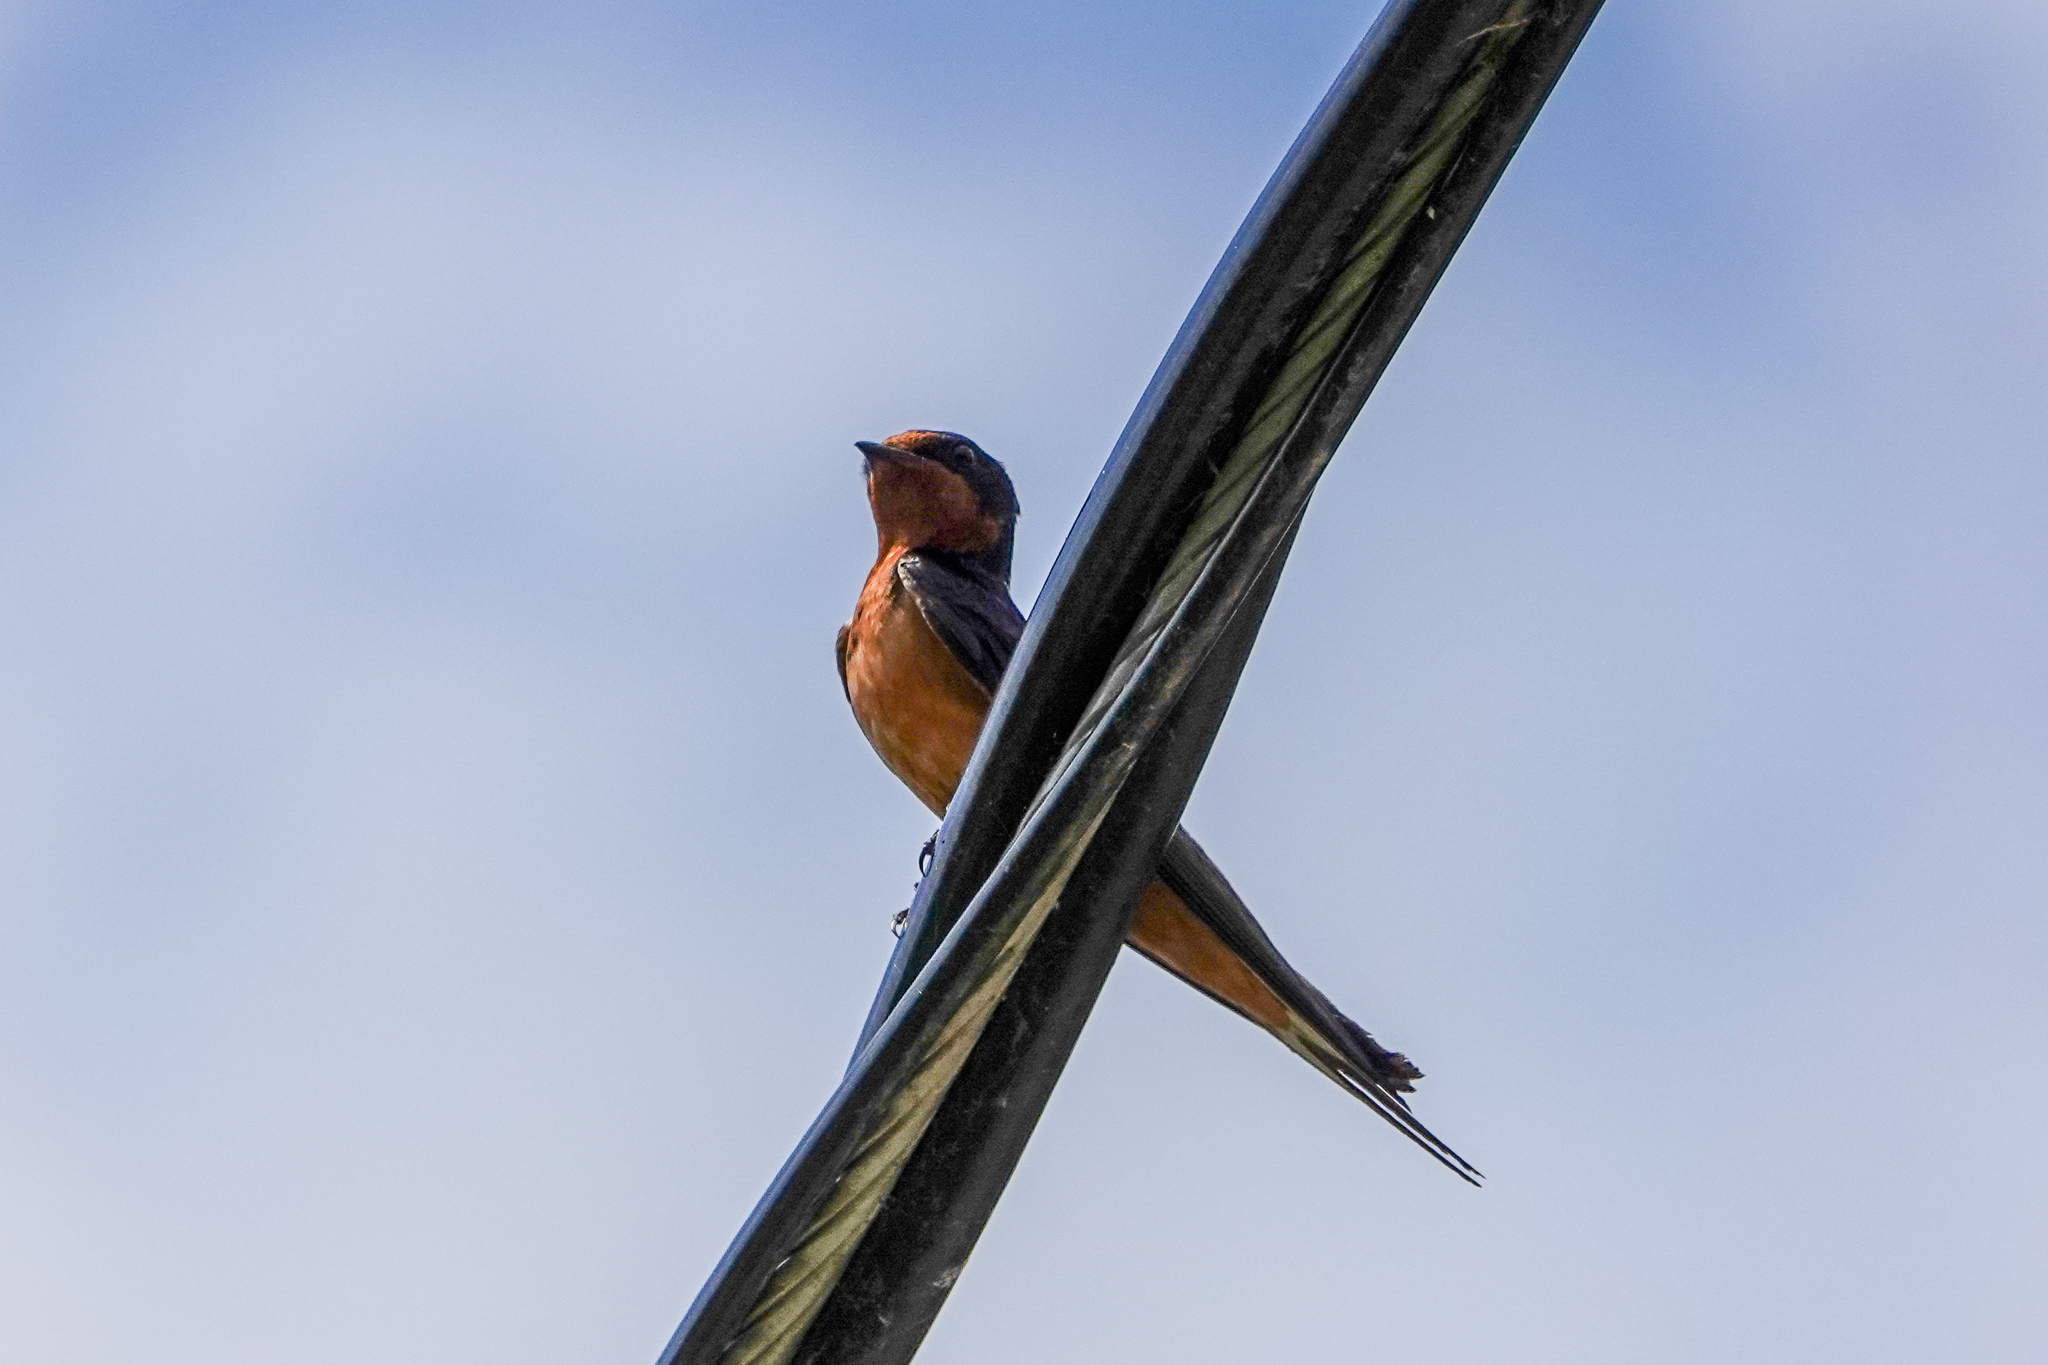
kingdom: Animalia
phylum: Chordata
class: Aves
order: Passeriformes
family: Hirundinidae
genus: Hirundo
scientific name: Hirundo rustica
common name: Barn swallow
